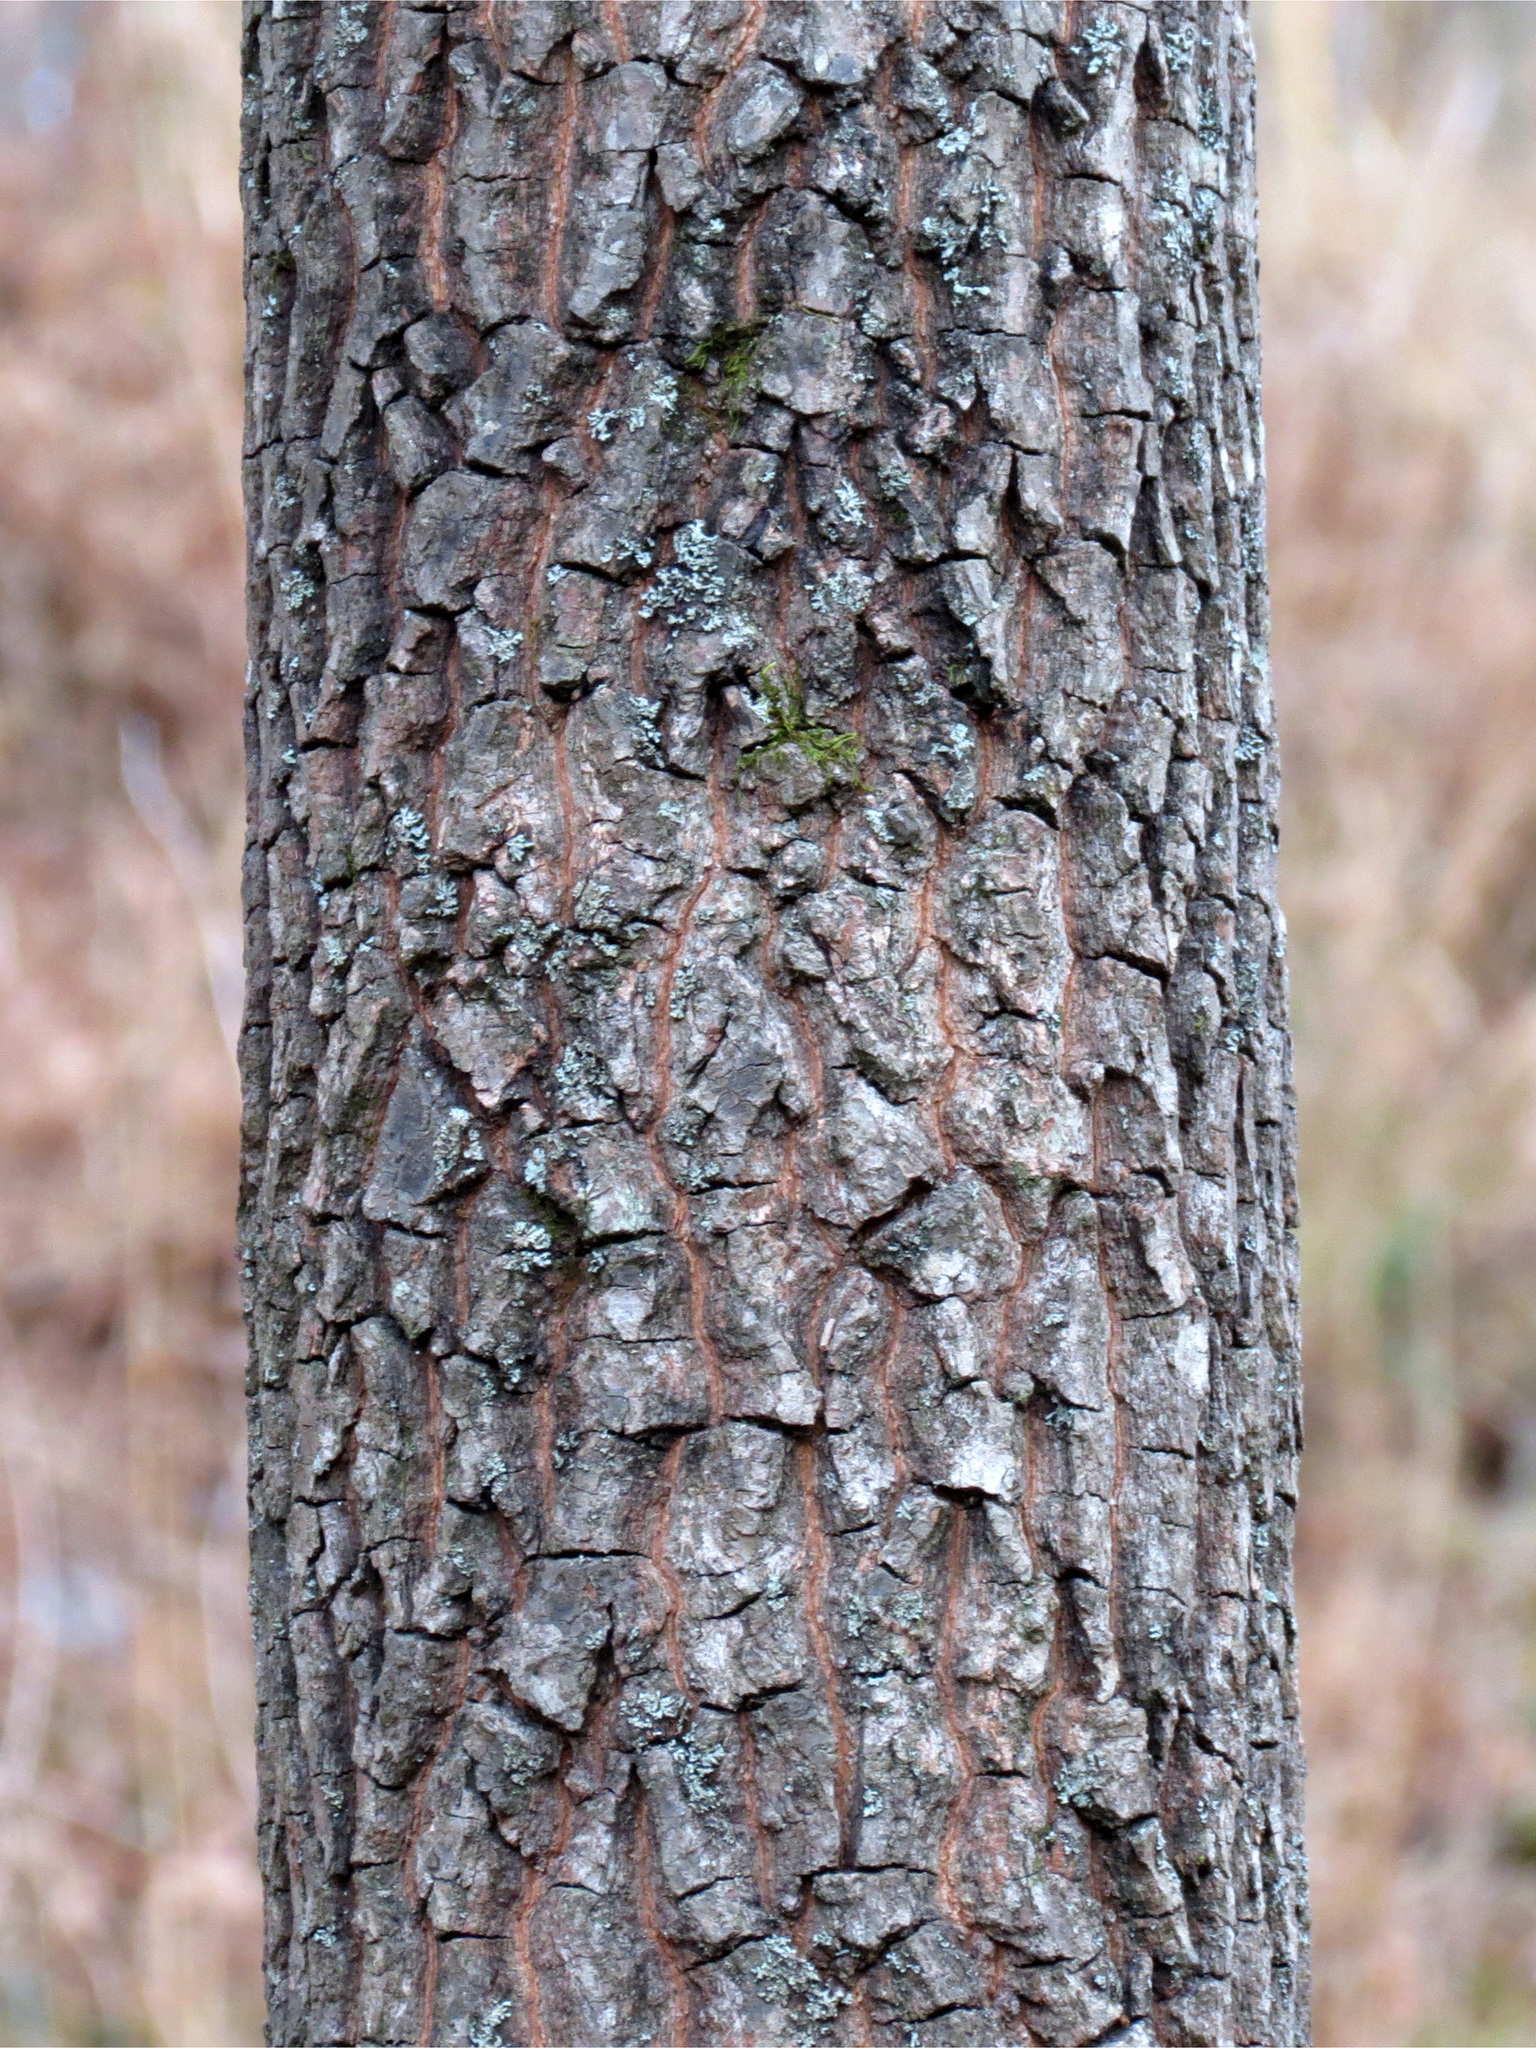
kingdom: Plantae
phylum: Tracheophyta
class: Magnoliopsida
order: Ericales
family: Ebenaceae
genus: Diospyros
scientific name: Diospyros virginiana
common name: Persimmon
